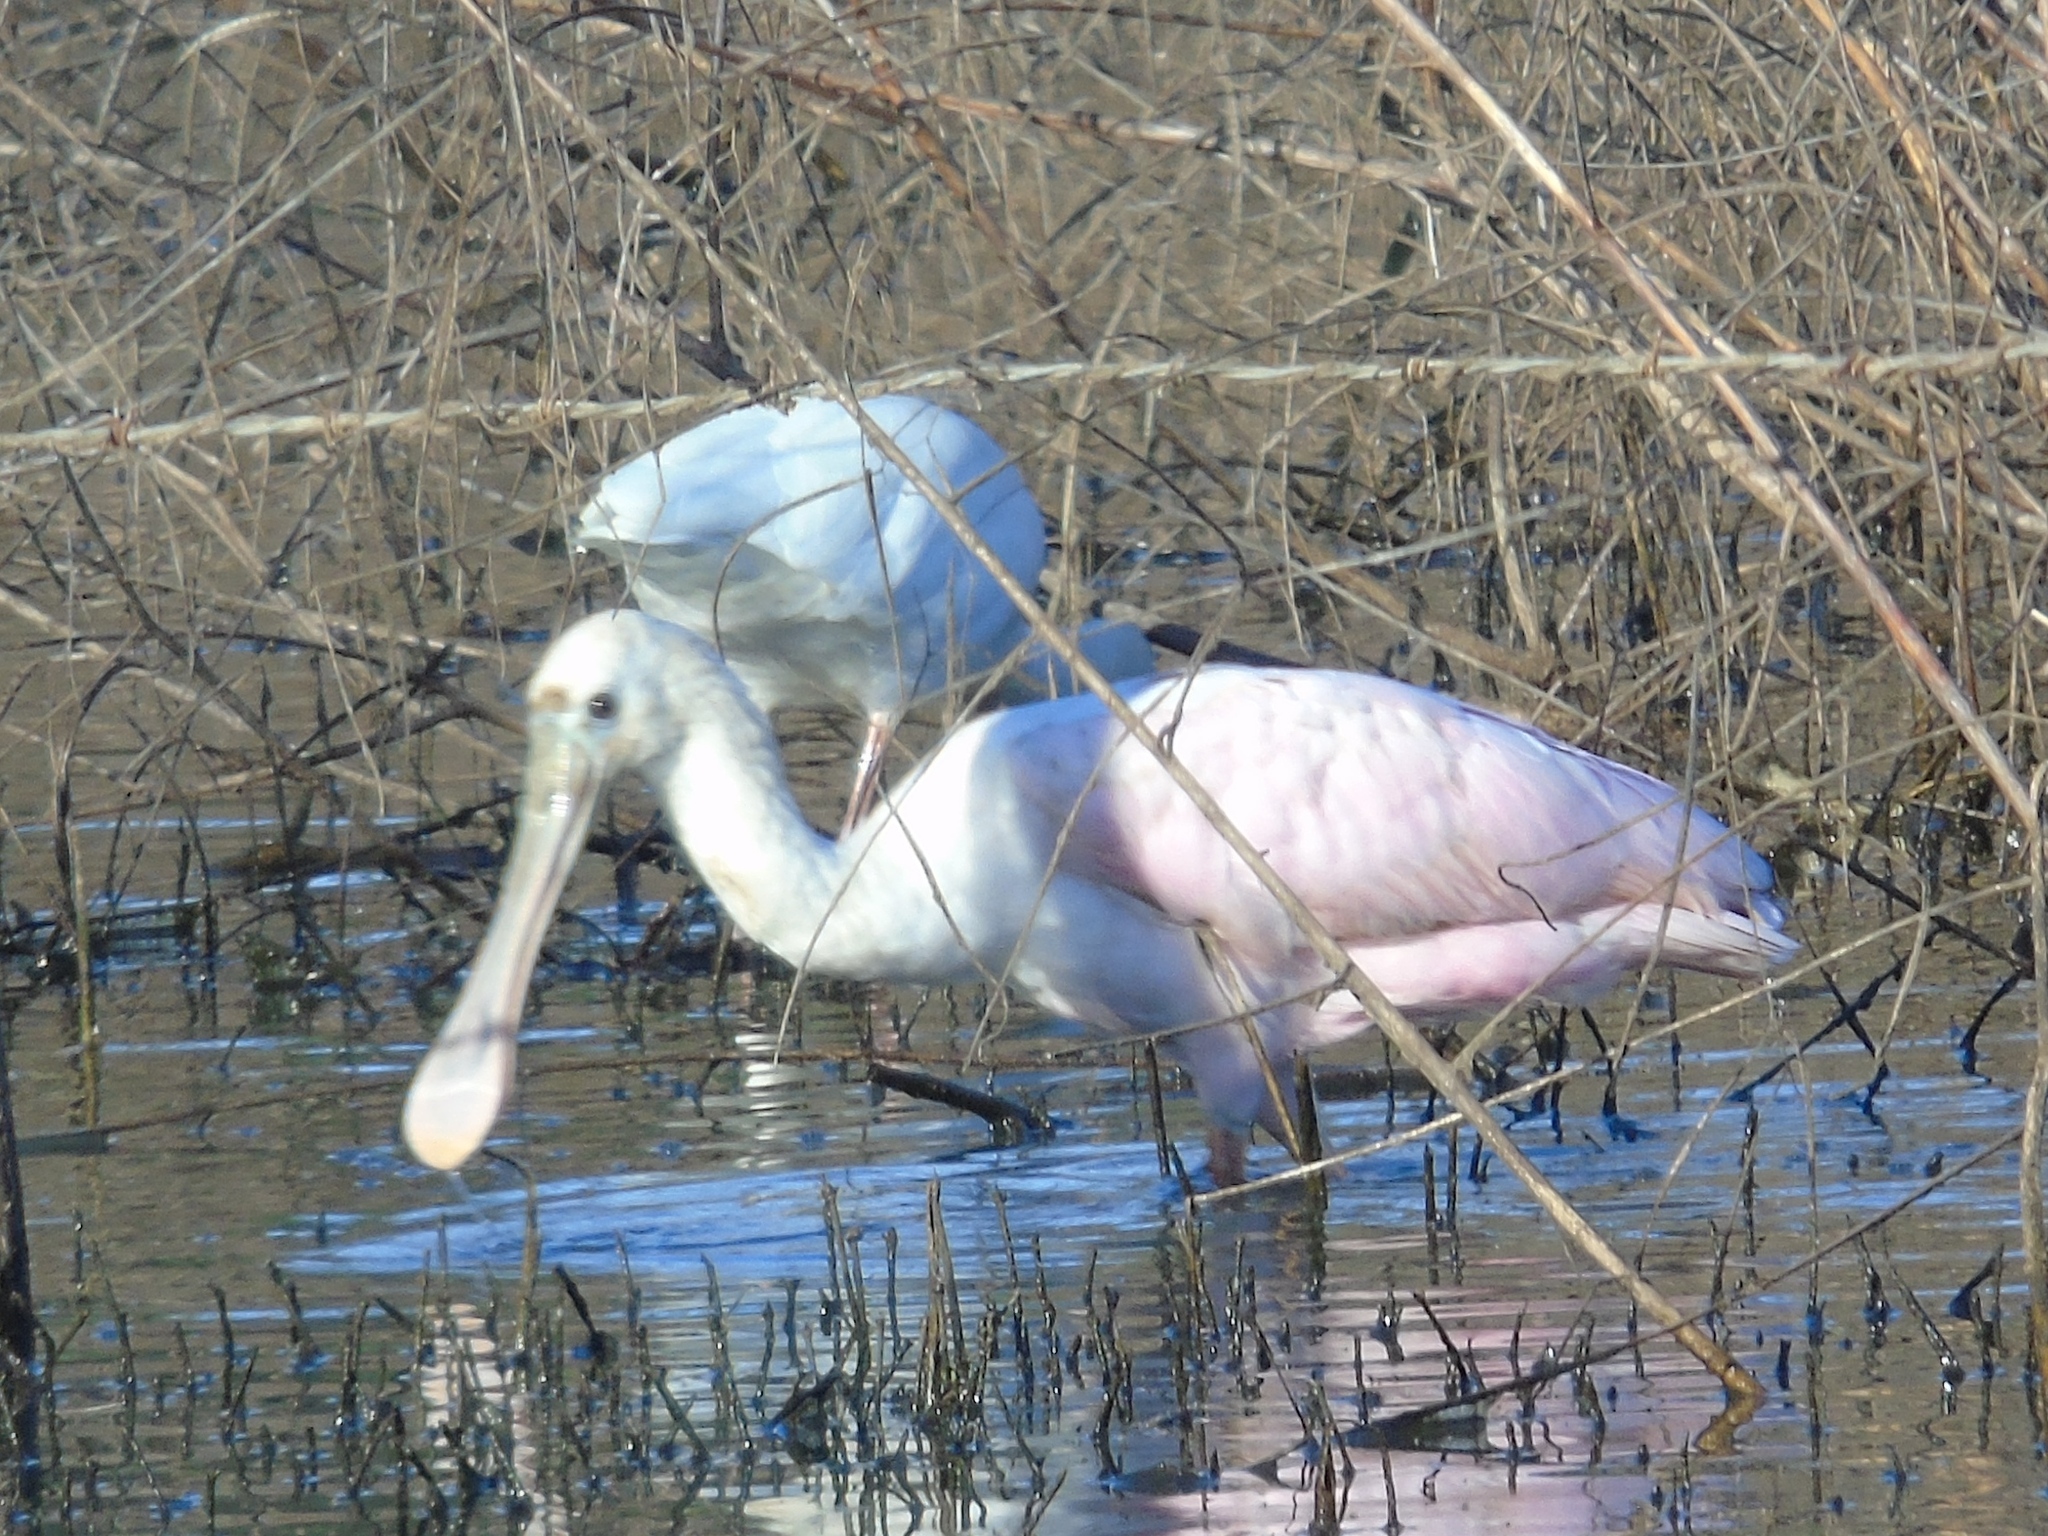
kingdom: Animalia
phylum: Chordata
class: Aves
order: Pelecaniformes
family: Threskiornithidae
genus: Platalea
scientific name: Platalea ajaja
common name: Roseate spoonbill
